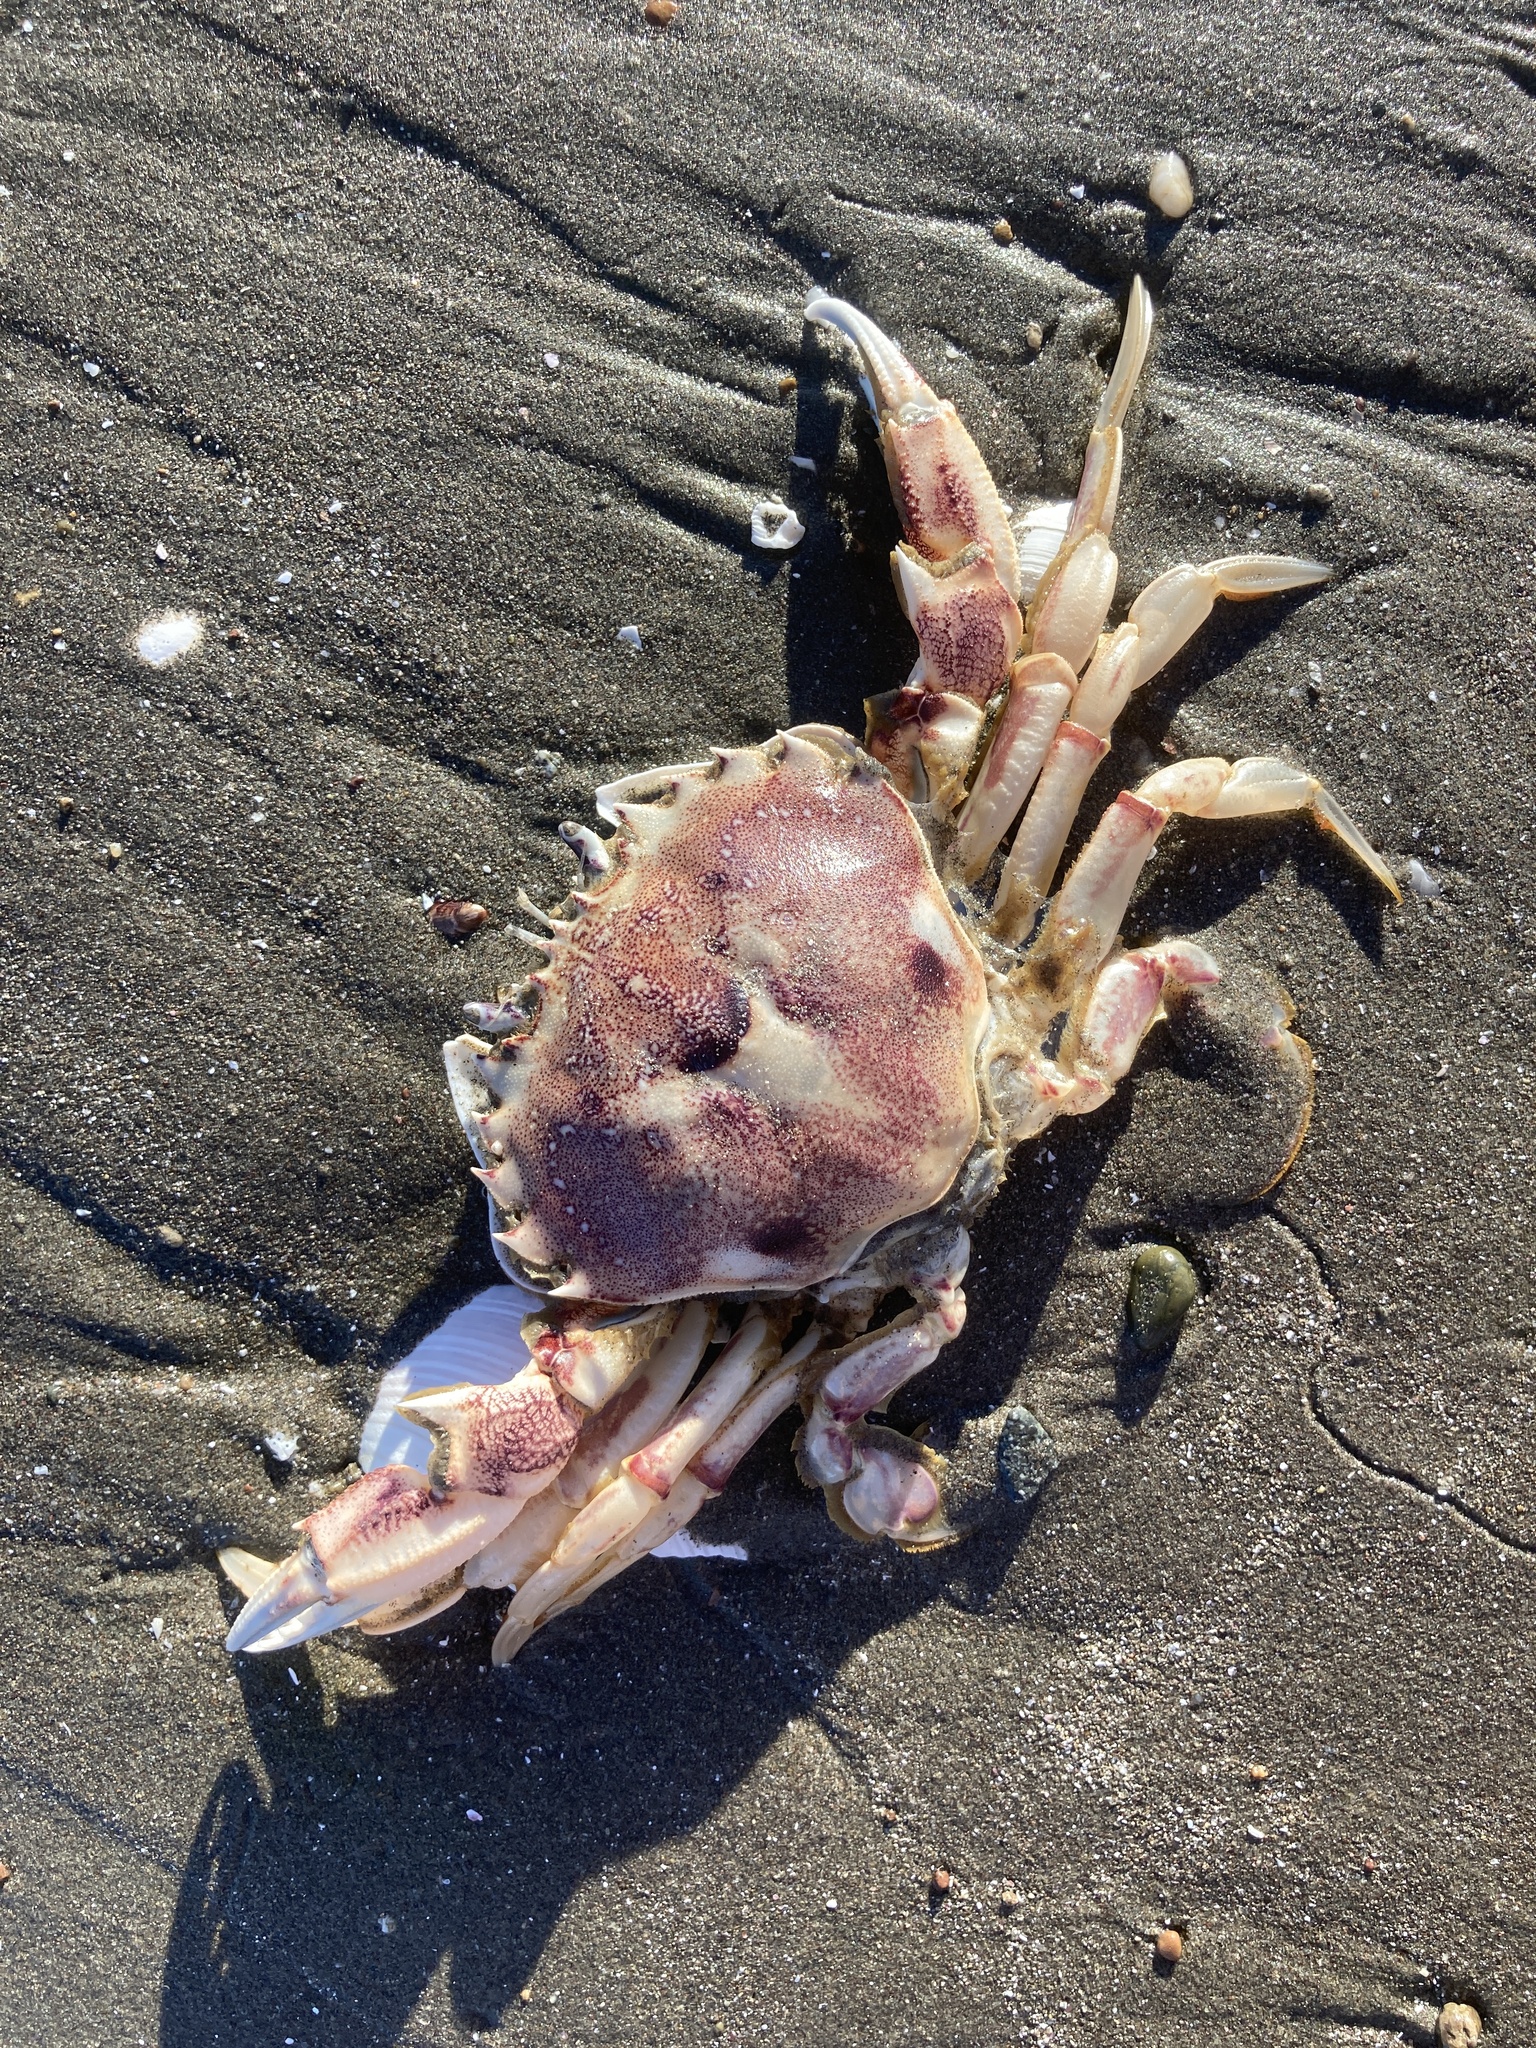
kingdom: Animalia
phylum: Arthropoda
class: Malacostraca
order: Decapoda
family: Ovalipidae
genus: Ovalipes
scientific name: Ovalipes trimaculatus
